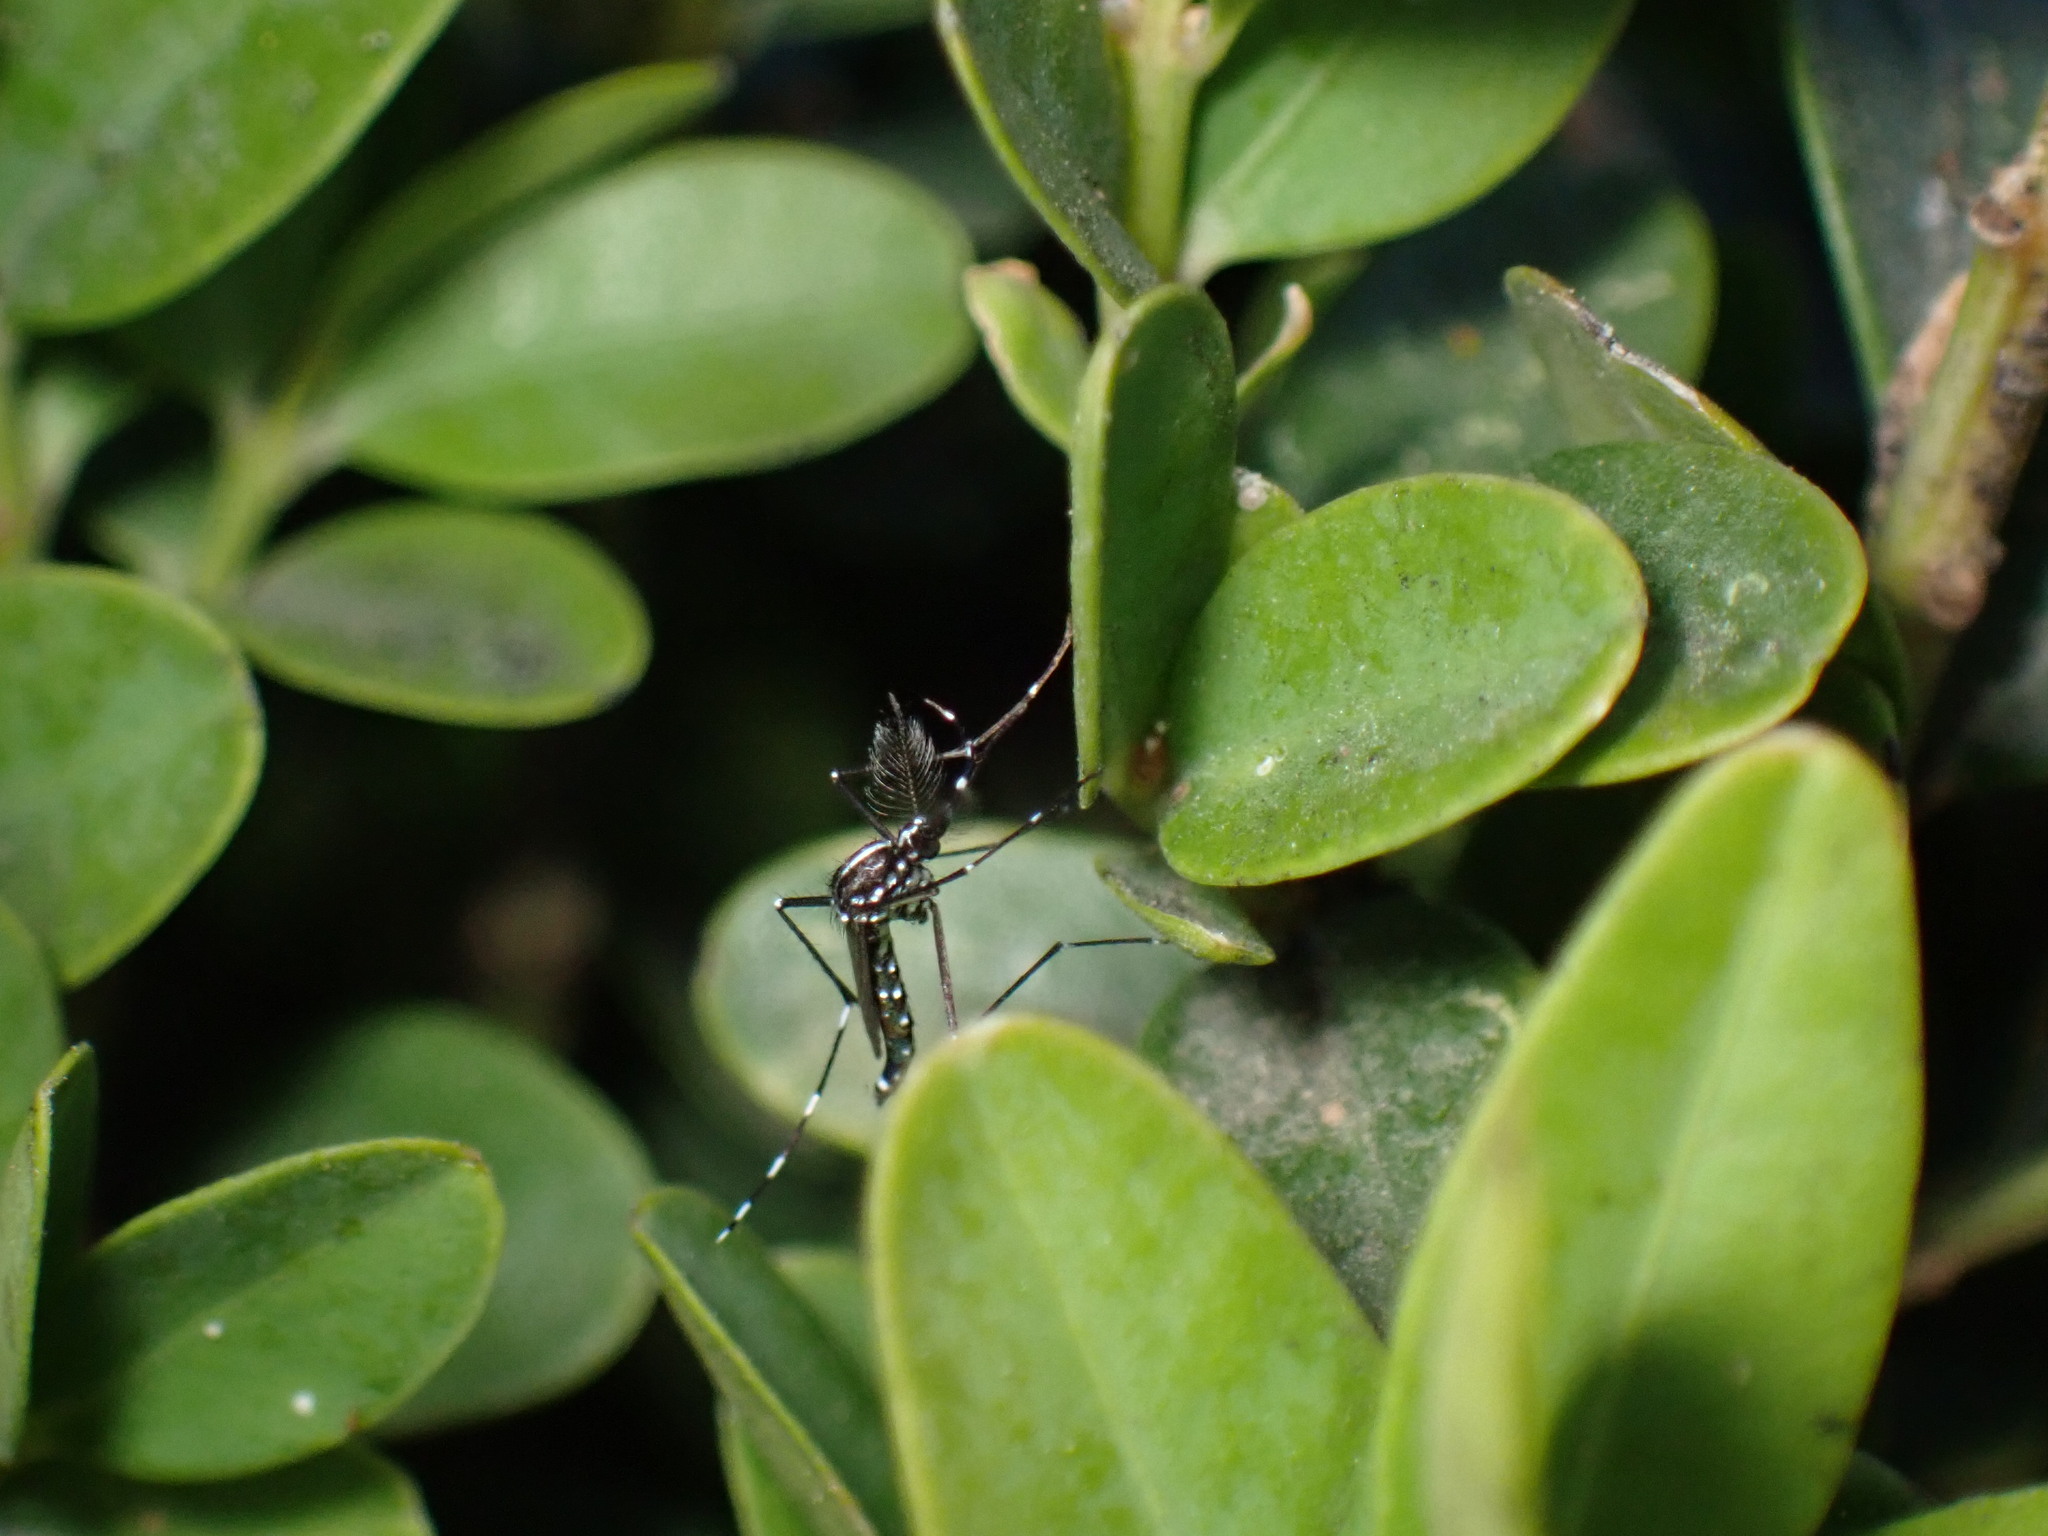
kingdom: Animalia
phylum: Arthropoda
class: Insecta
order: Diptera
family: Culicidae
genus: Aedes
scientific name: Aedes albopictus
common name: Tiger mosquito
